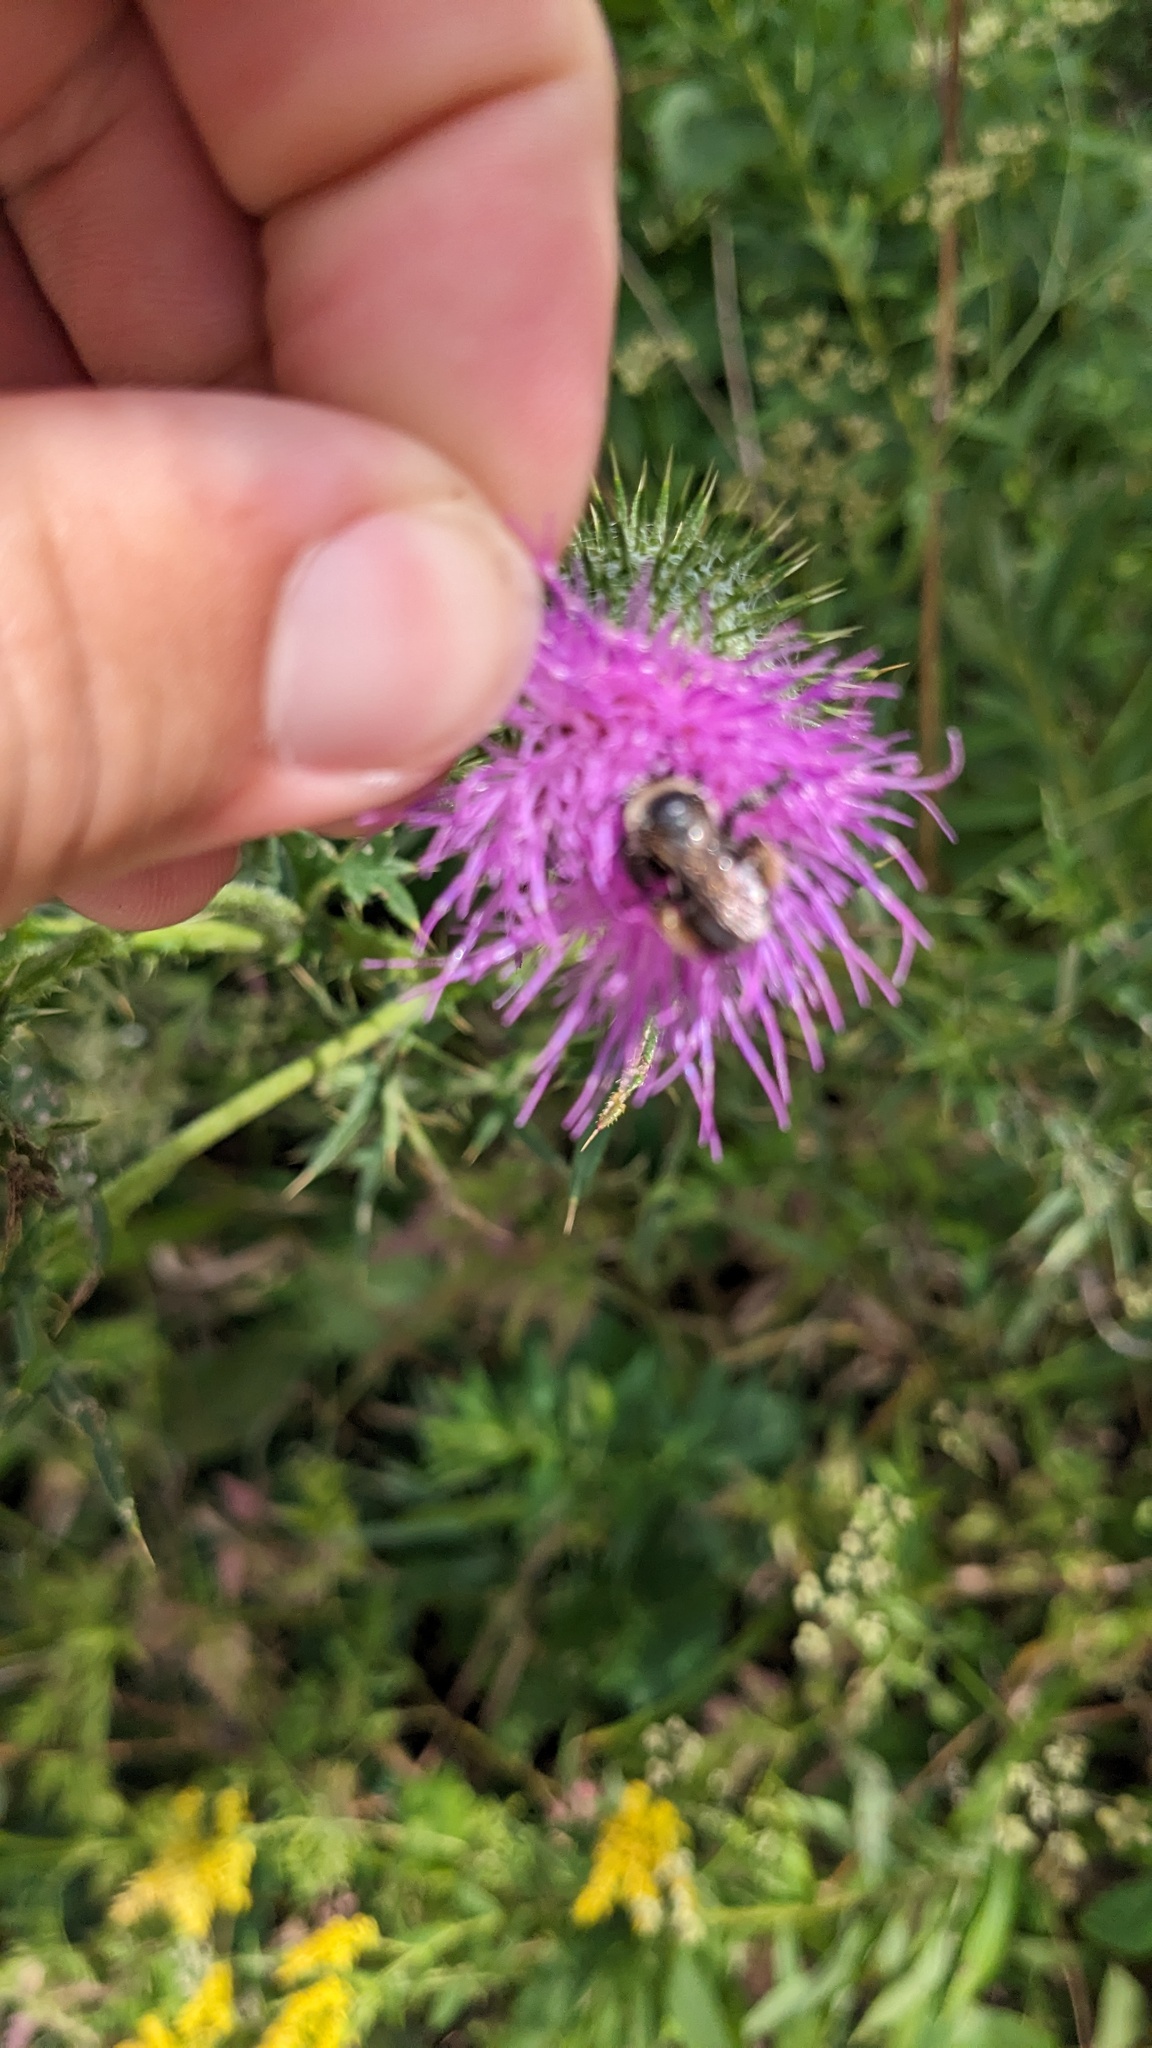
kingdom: Animalia
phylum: Arthropoda
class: Insecta
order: Hymenoptera
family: Apidae
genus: Melissodes
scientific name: Melissodes desponsus
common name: Thistle long-horned bee
